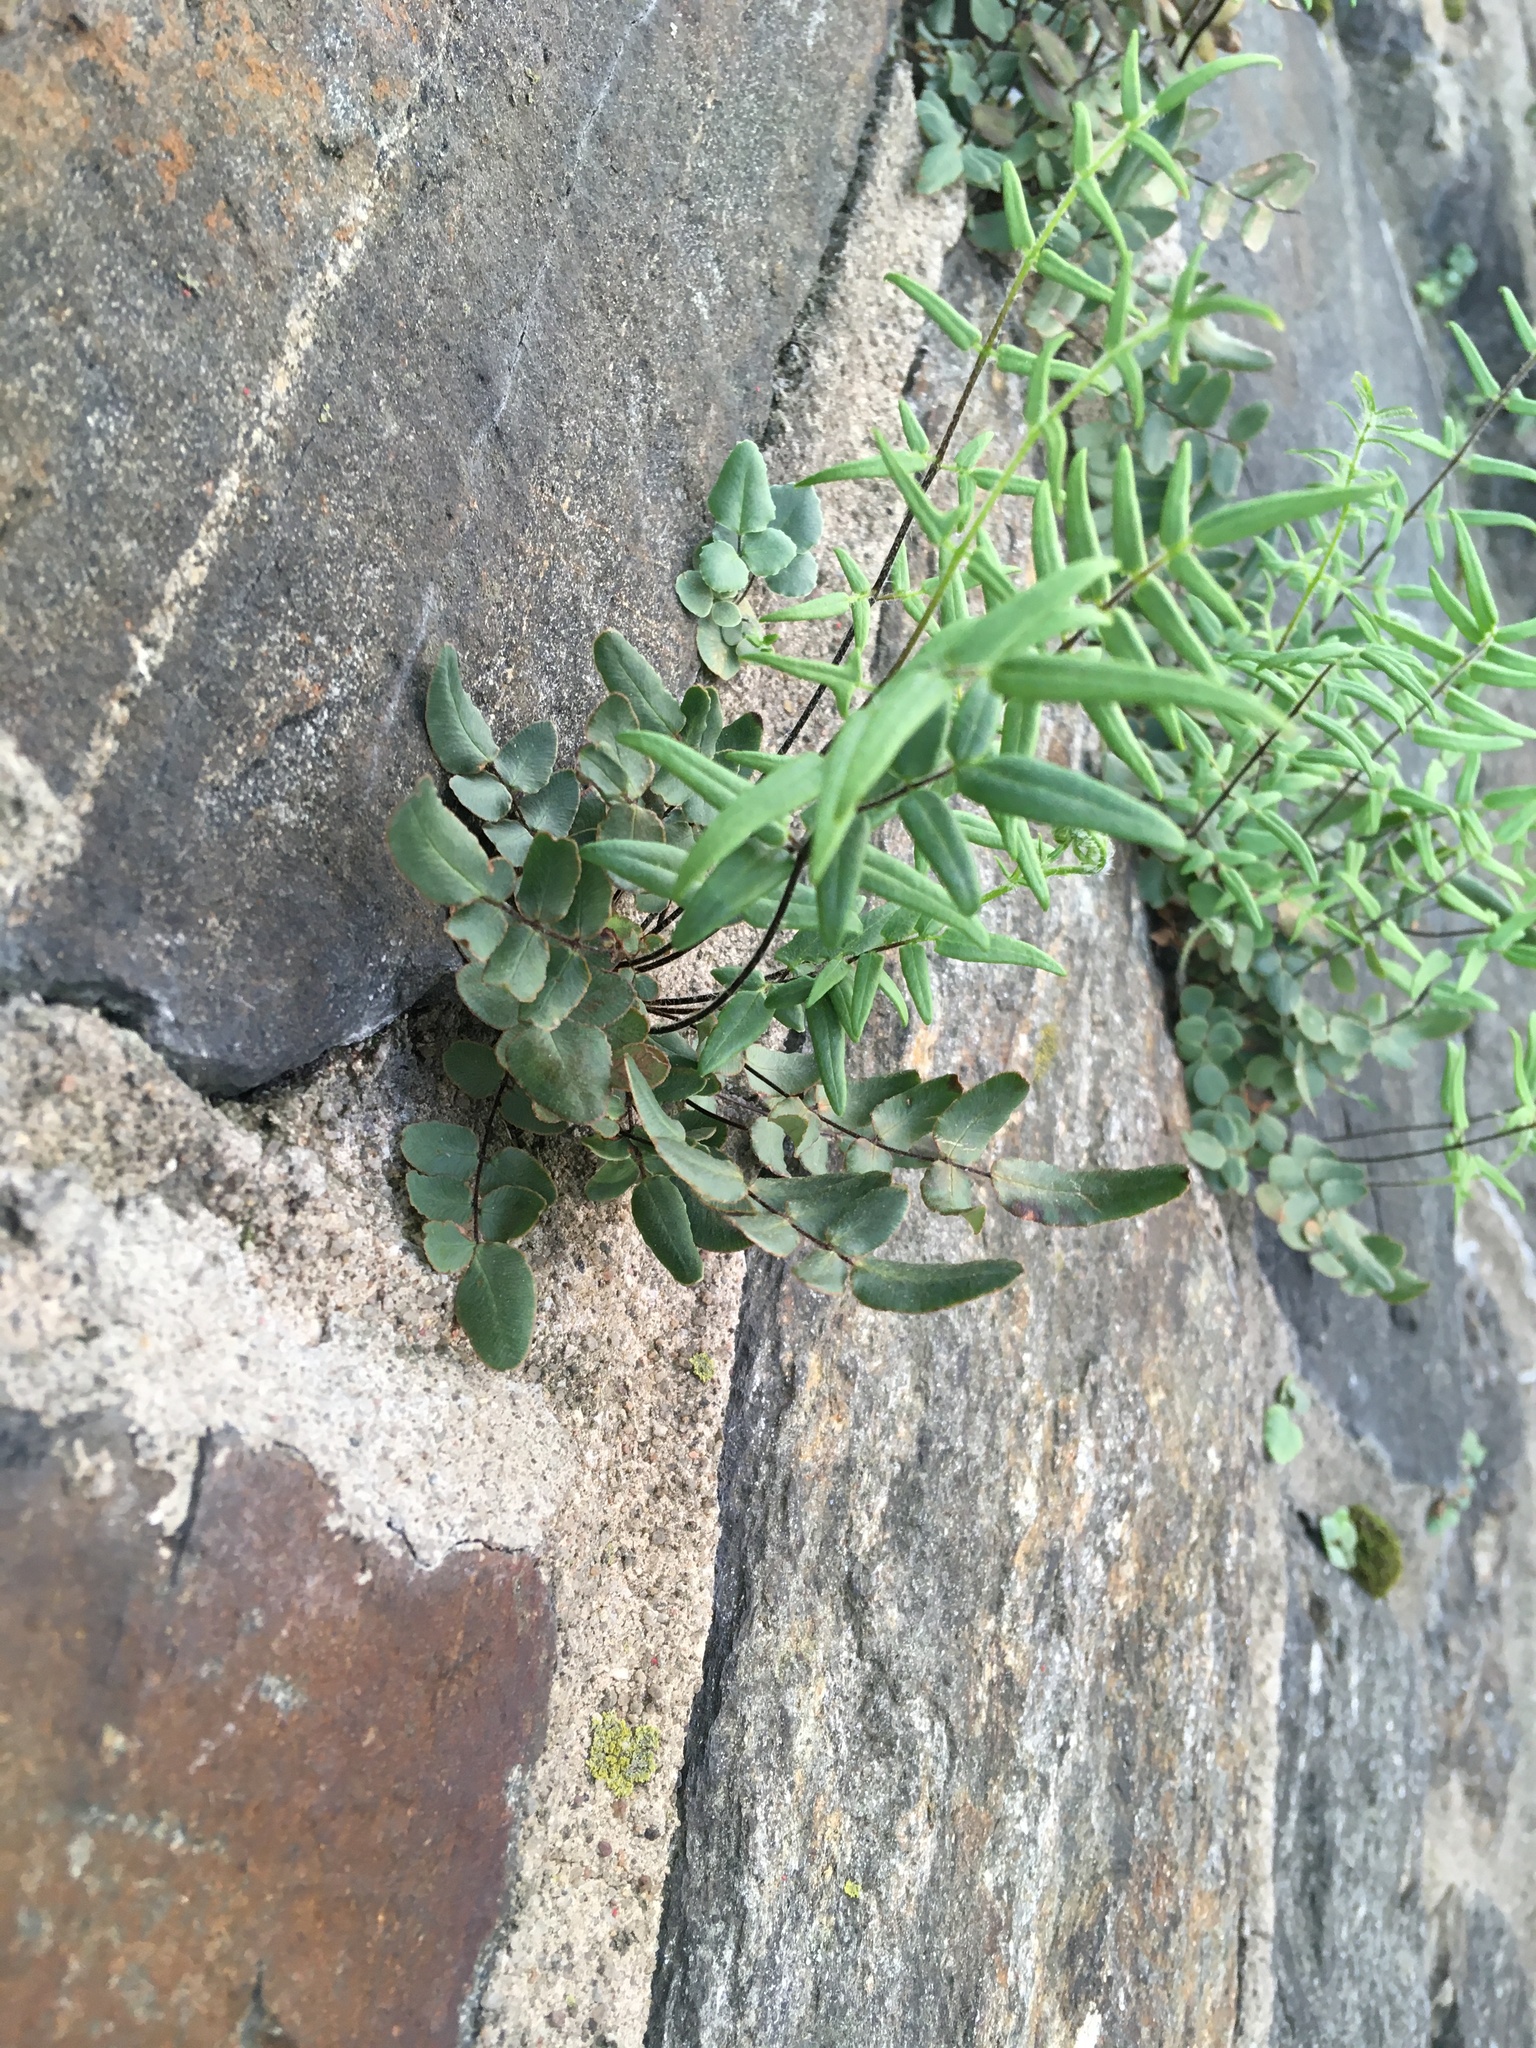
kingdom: Plantae
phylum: Tracheophyta
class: Polypodiopsida
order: Polypodiales
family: Pteridaceae
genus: Pellaea
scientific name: Pellaea atropurpurea
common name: Hairy cliffbrake
